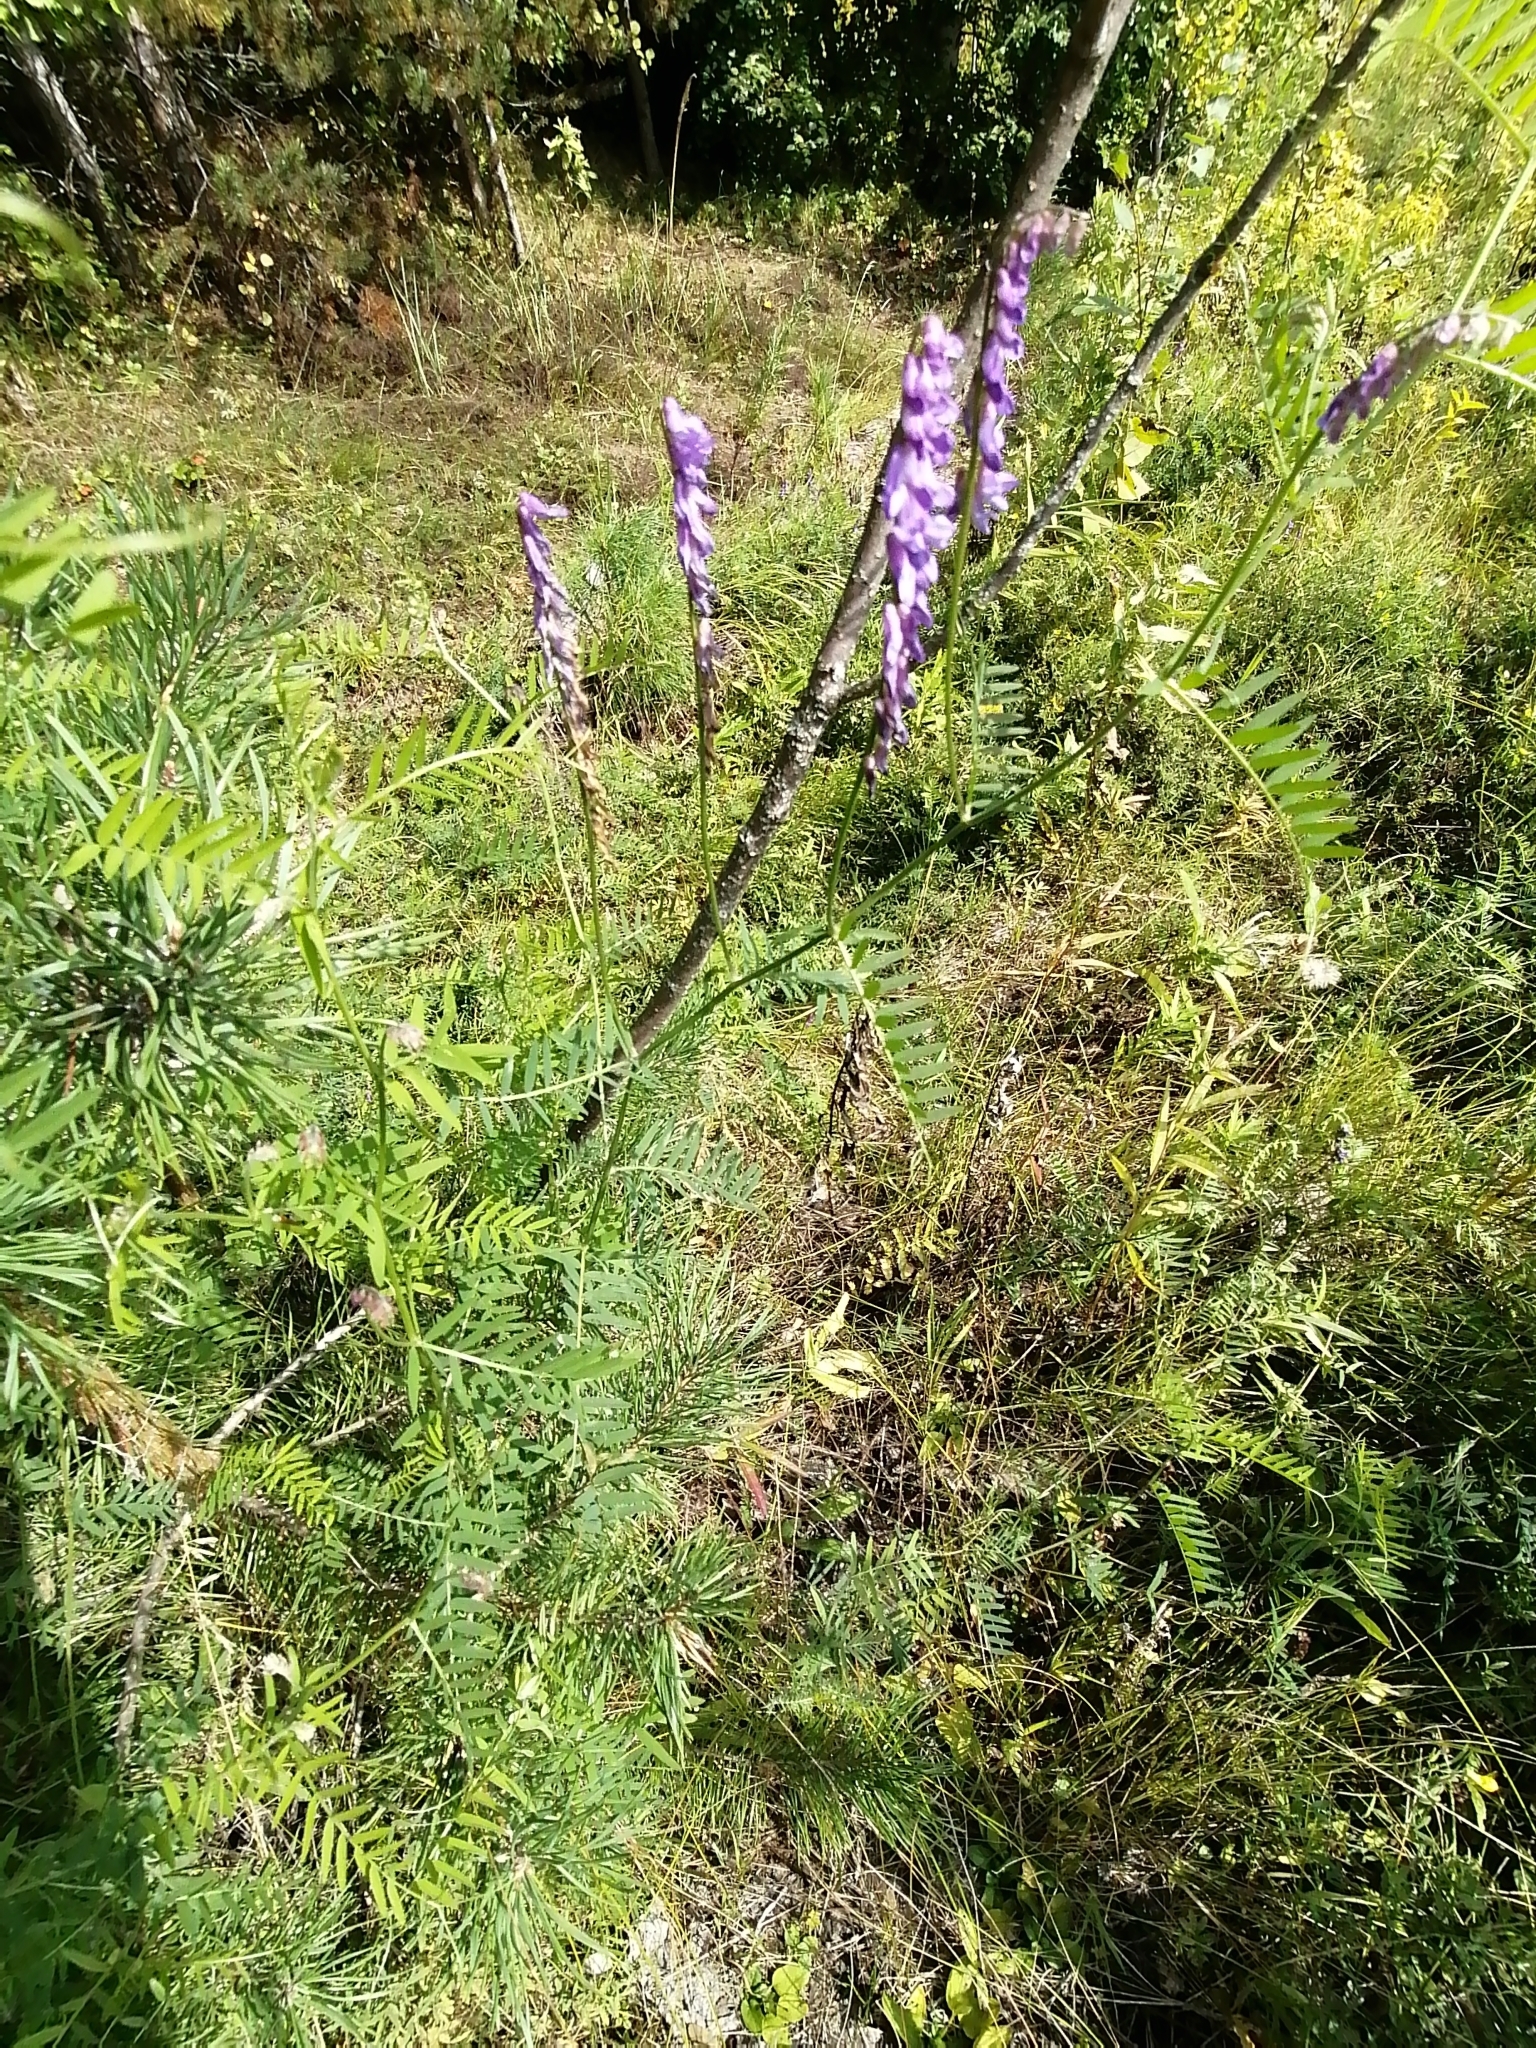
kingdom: Plantae
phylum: Tracheophyta
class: Magnoliopsida
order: Fabales
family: Fabaceae
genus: Vicia
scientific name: Vicia cracca
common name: Bird vetch
